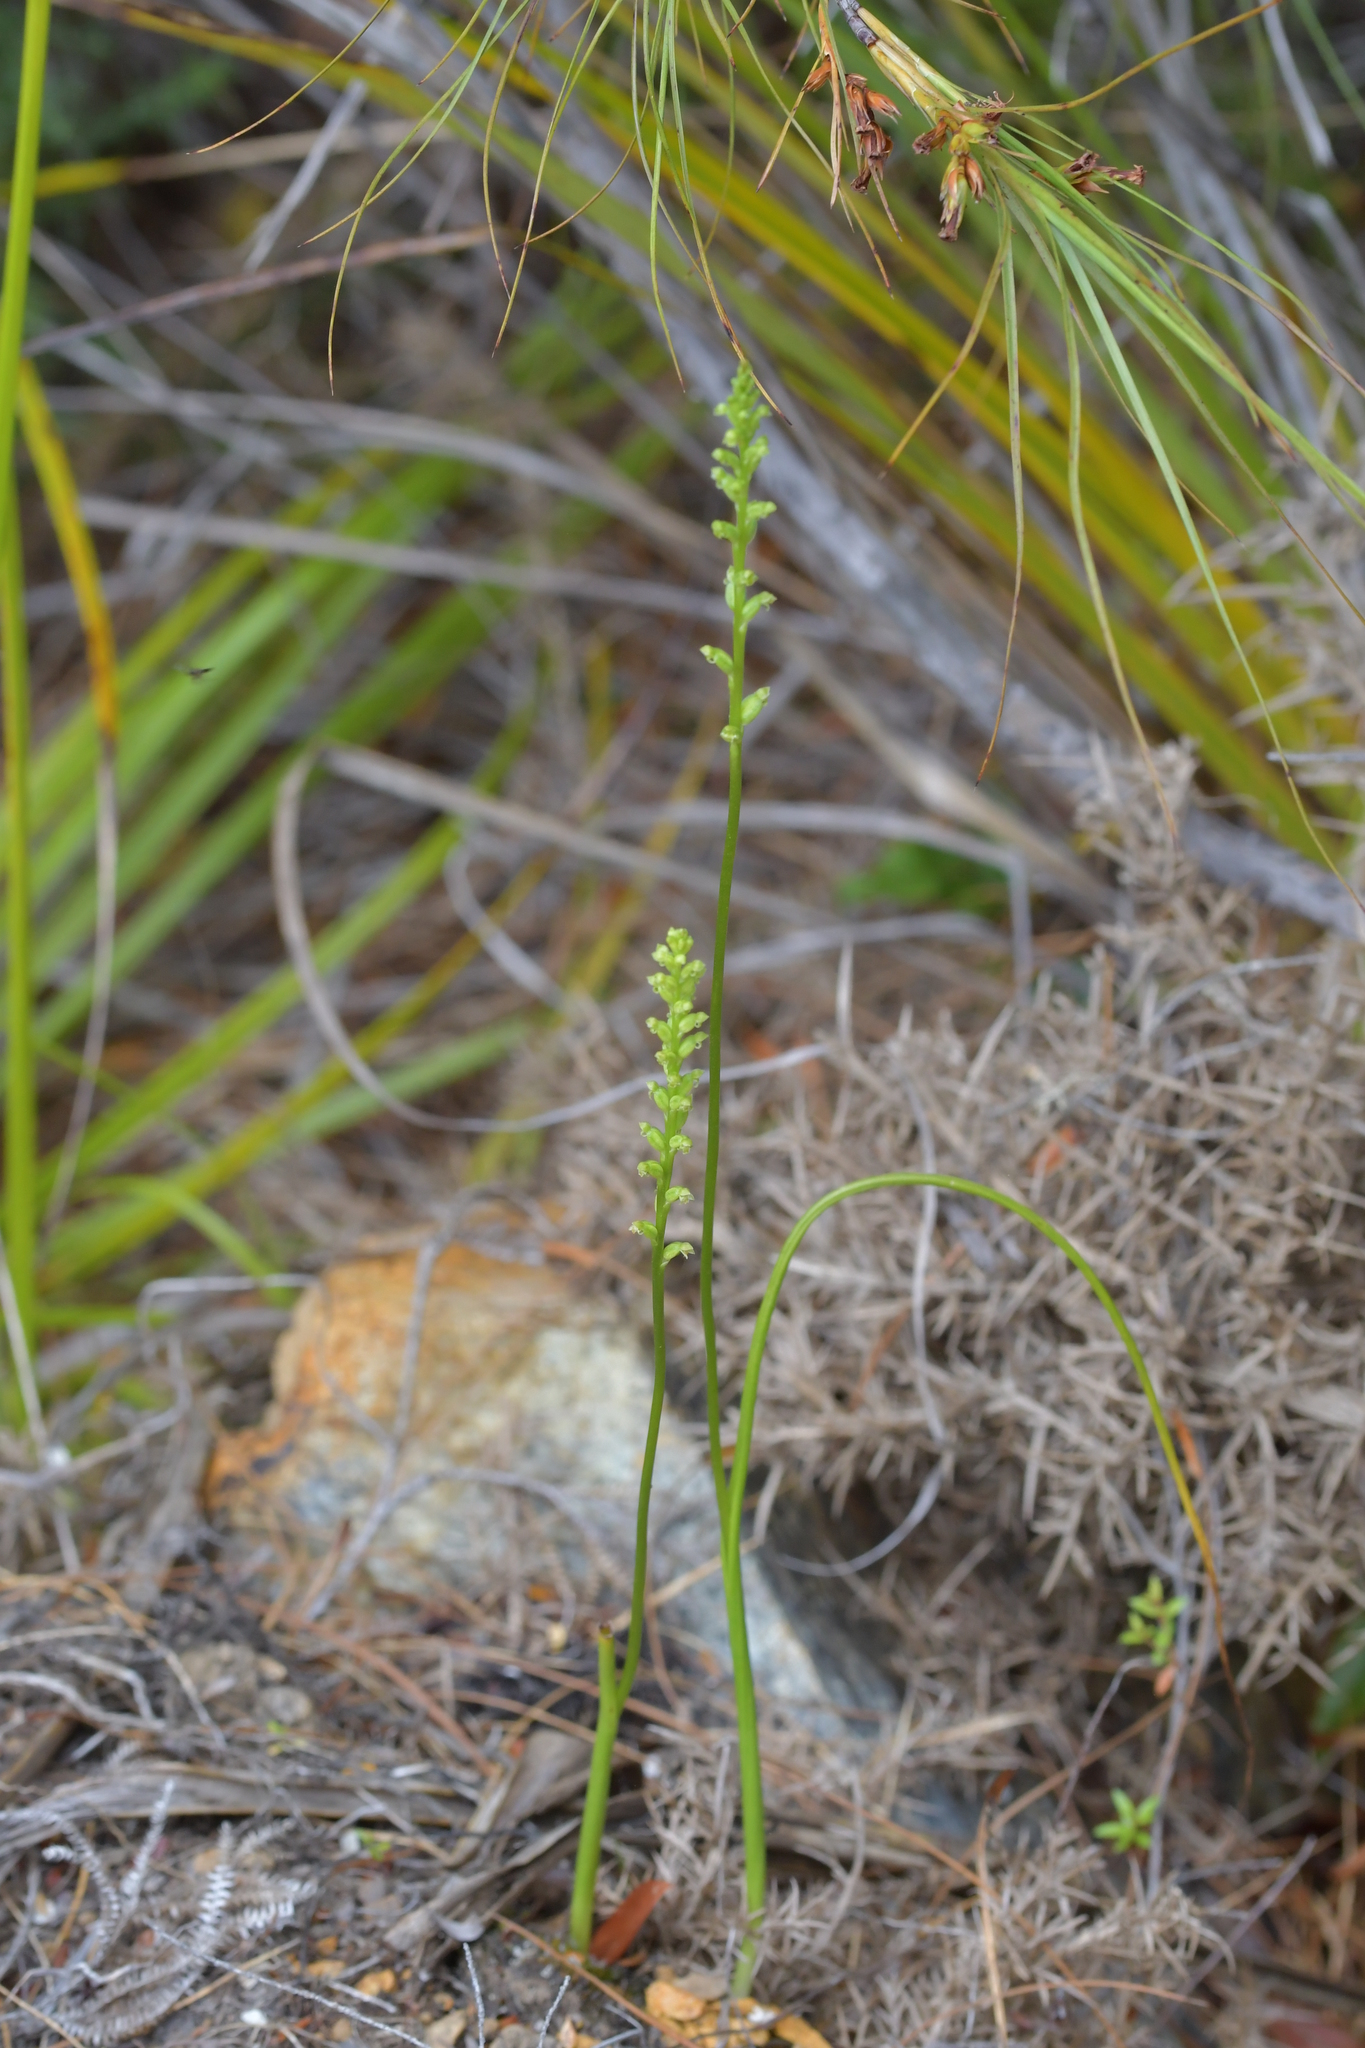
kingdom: Plantae
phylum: Tracheophyta
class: Liliopsida
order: Asparagales
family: Orchidaceae
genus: Microtis
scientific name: Microtis unifolia
